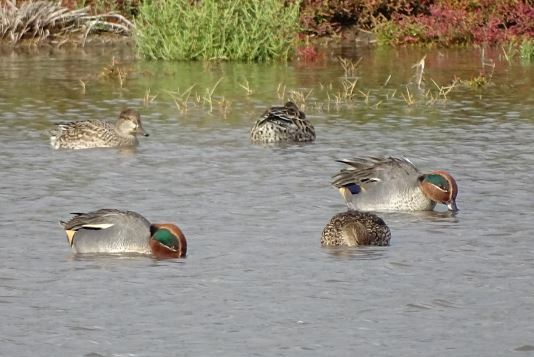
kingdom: Animalia
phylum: Chordata
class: Aves
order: Anseriformes
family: Anatidae
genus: Anas
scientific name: Anas crecca
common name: Eurasian teal
